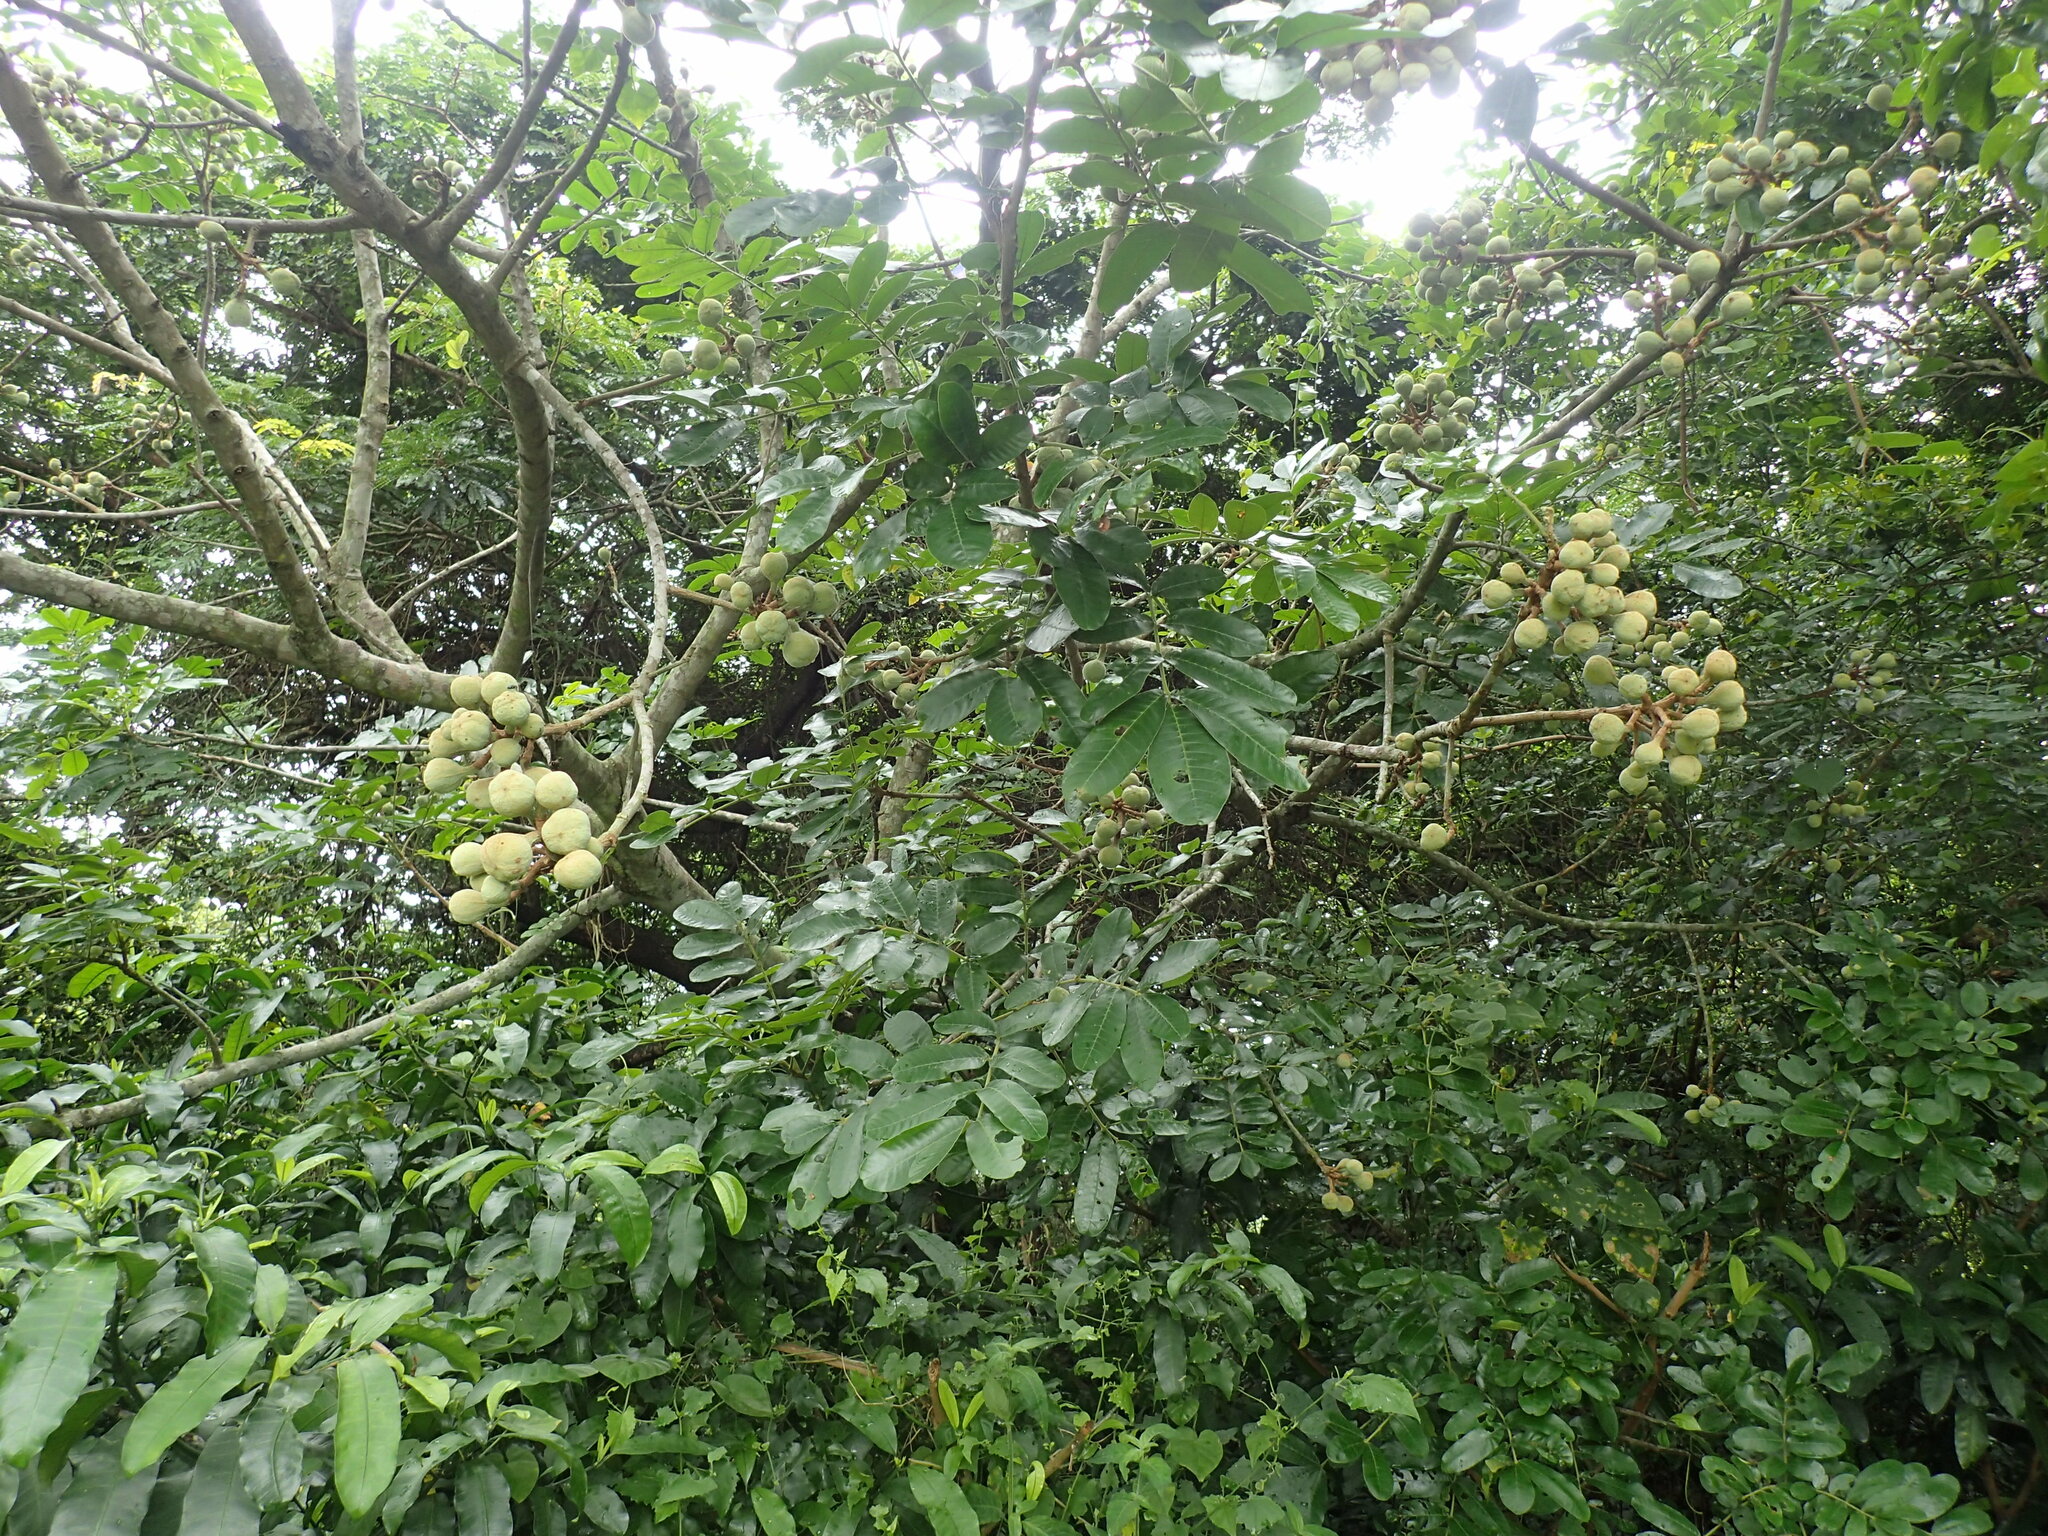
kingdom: Plantae
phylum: Tracheophyta
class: Magnoliopsida
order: Sapindales
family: Meliaceae
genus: Trichilia
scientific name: Trichilia emetica
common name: Christmas-bells
